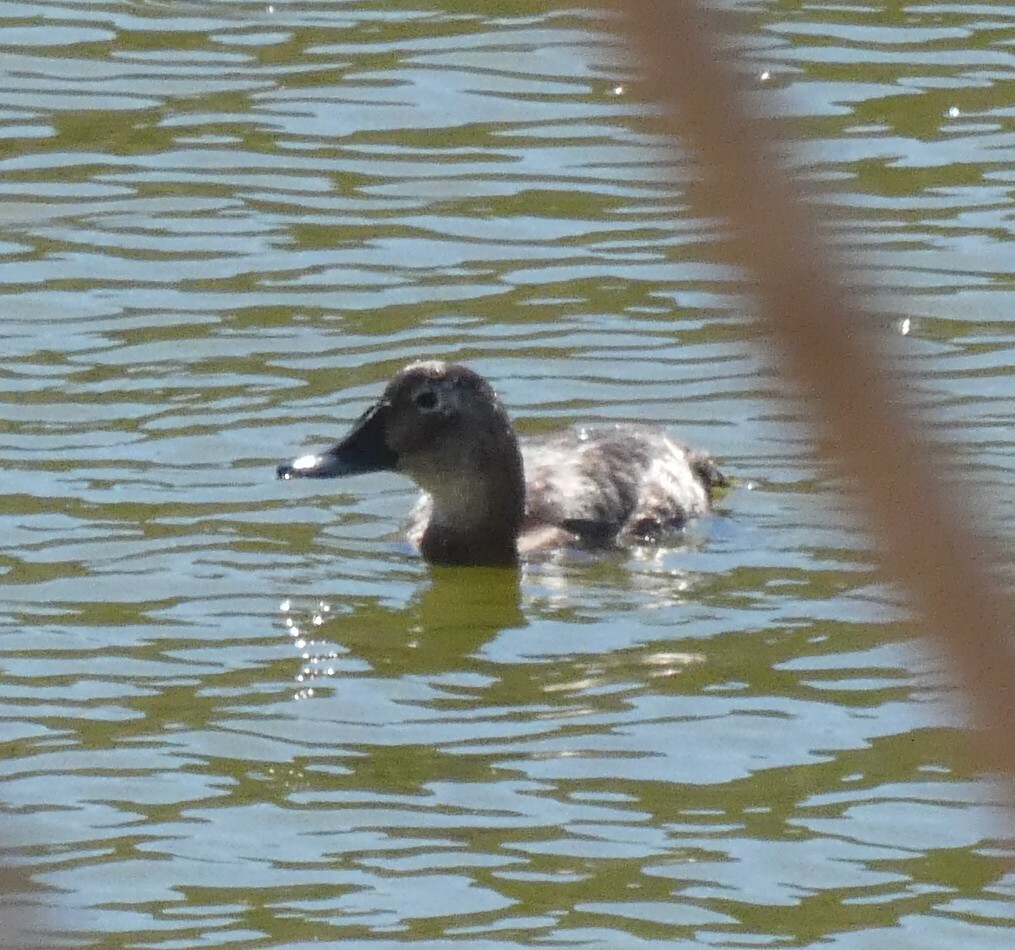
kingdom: Animalia
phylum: Chordata
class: Aves
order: Anseriformes
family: Anatidae
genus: Aythya
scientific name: Aythya ferina
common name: Common pochard
